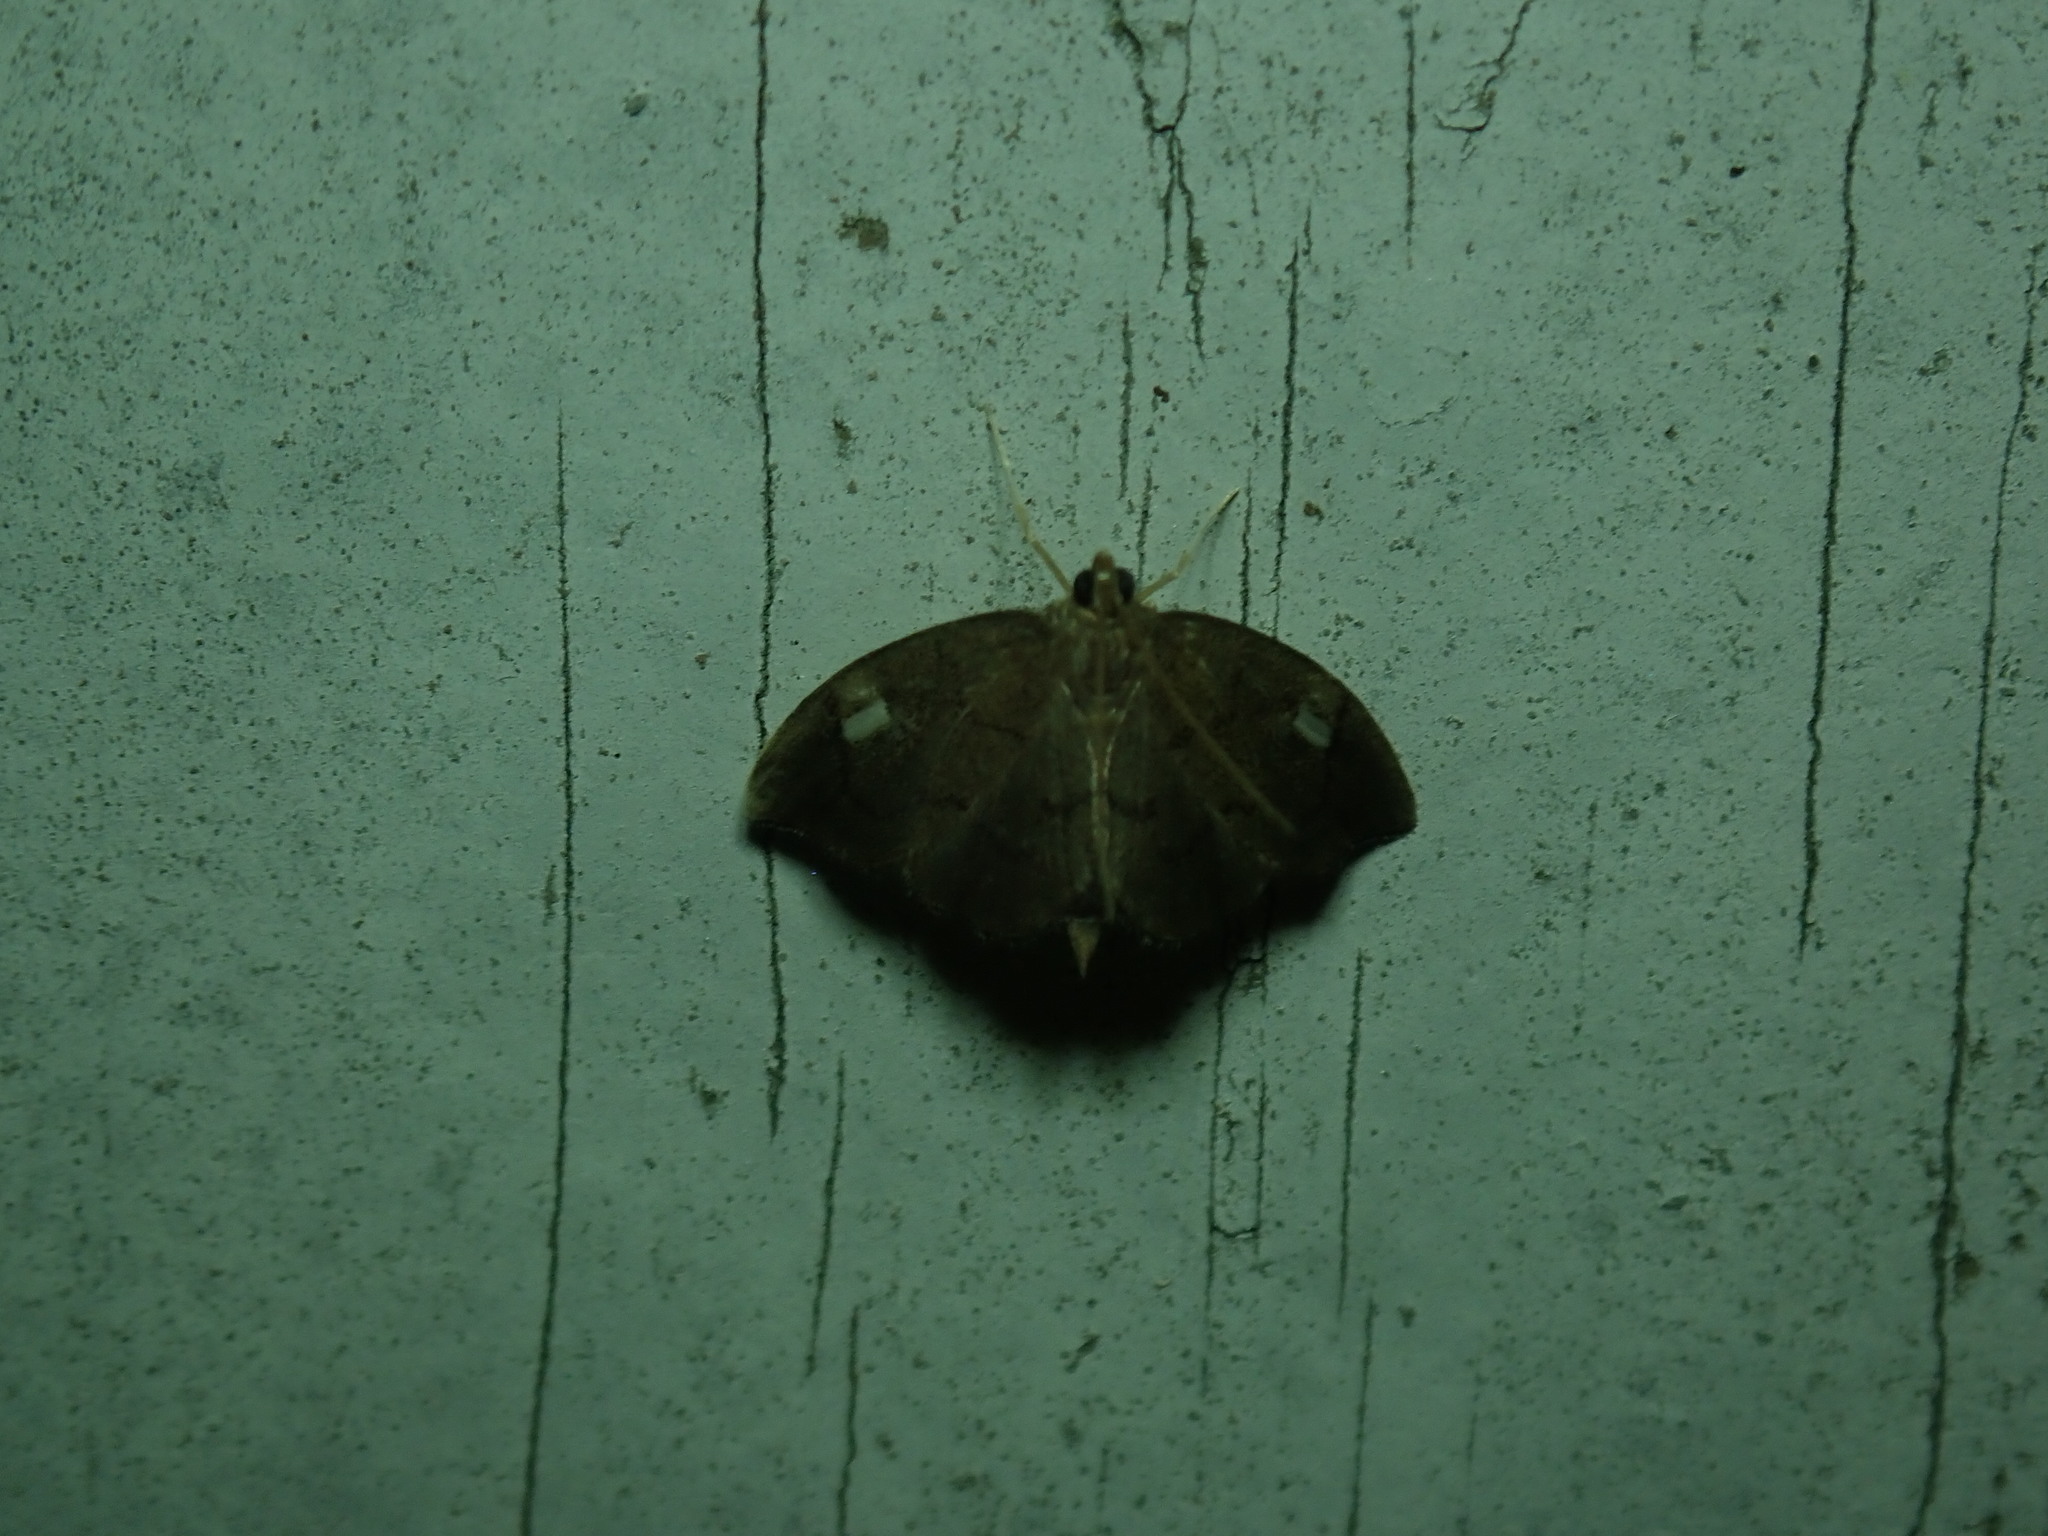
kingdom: Animalia
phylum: Arthropoda
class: Insecta
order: Lepidoptera
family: Crambidae
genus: Perispasta
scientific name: Perispasta caeculalis
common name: Titian peale's moth
